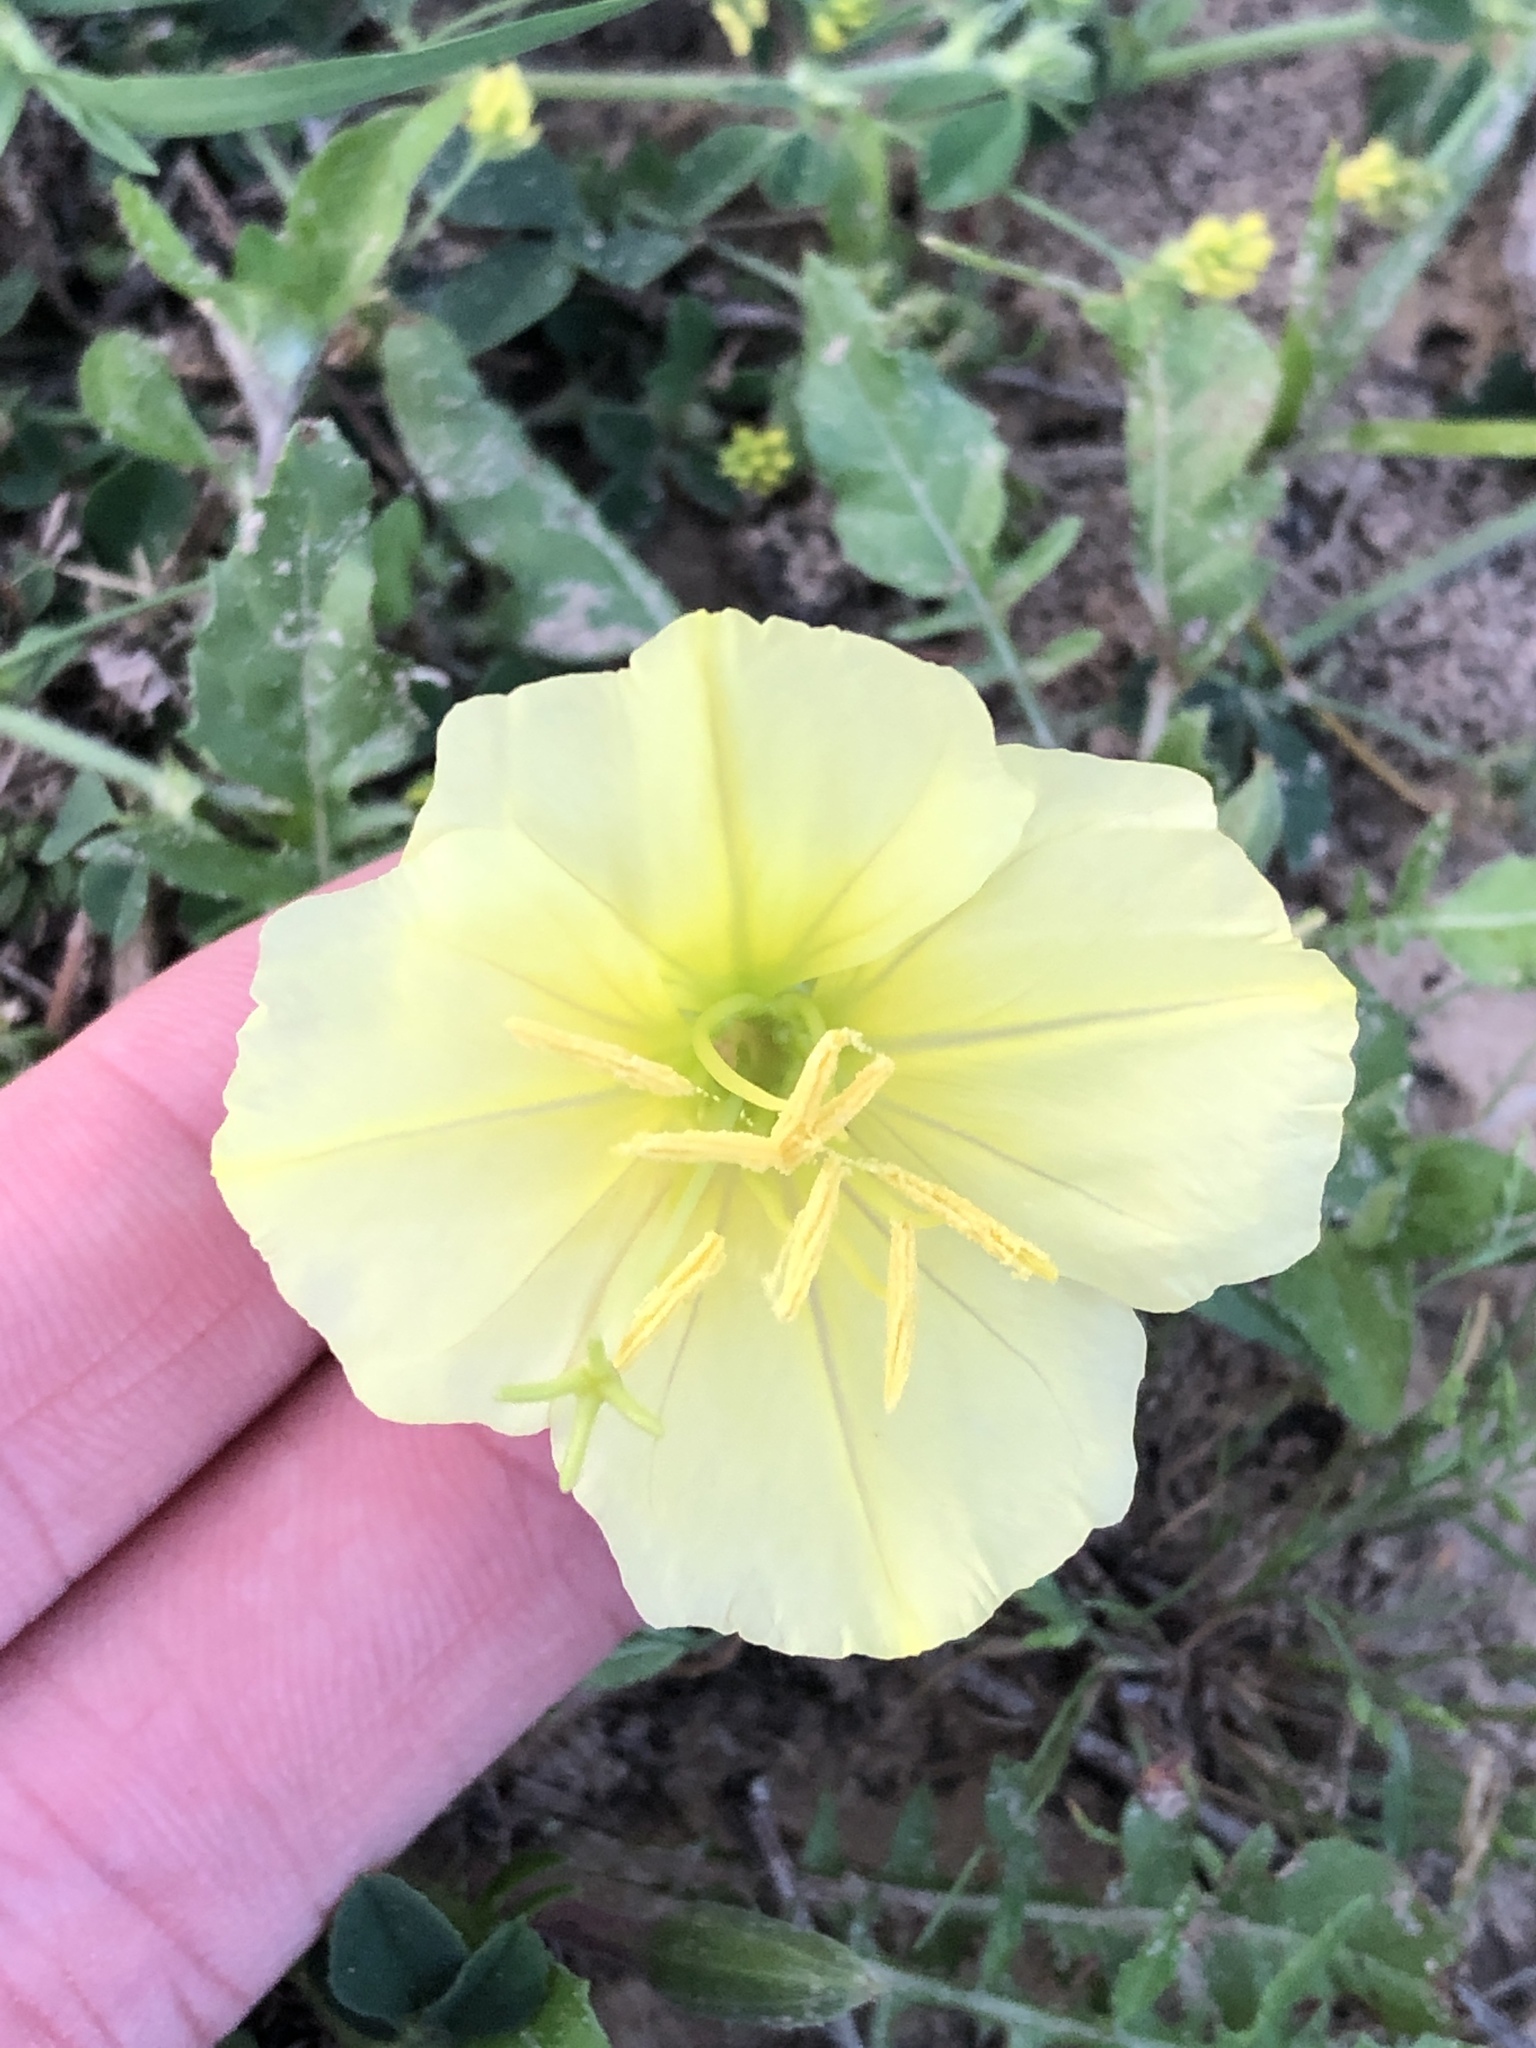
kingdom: Plantae
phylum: Tracheophyta
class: Magnoliopsida
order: Myrtales
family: Onagraceae
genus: Oenothera
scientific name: Oenothera triloba
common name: Sessile evening-primrose
